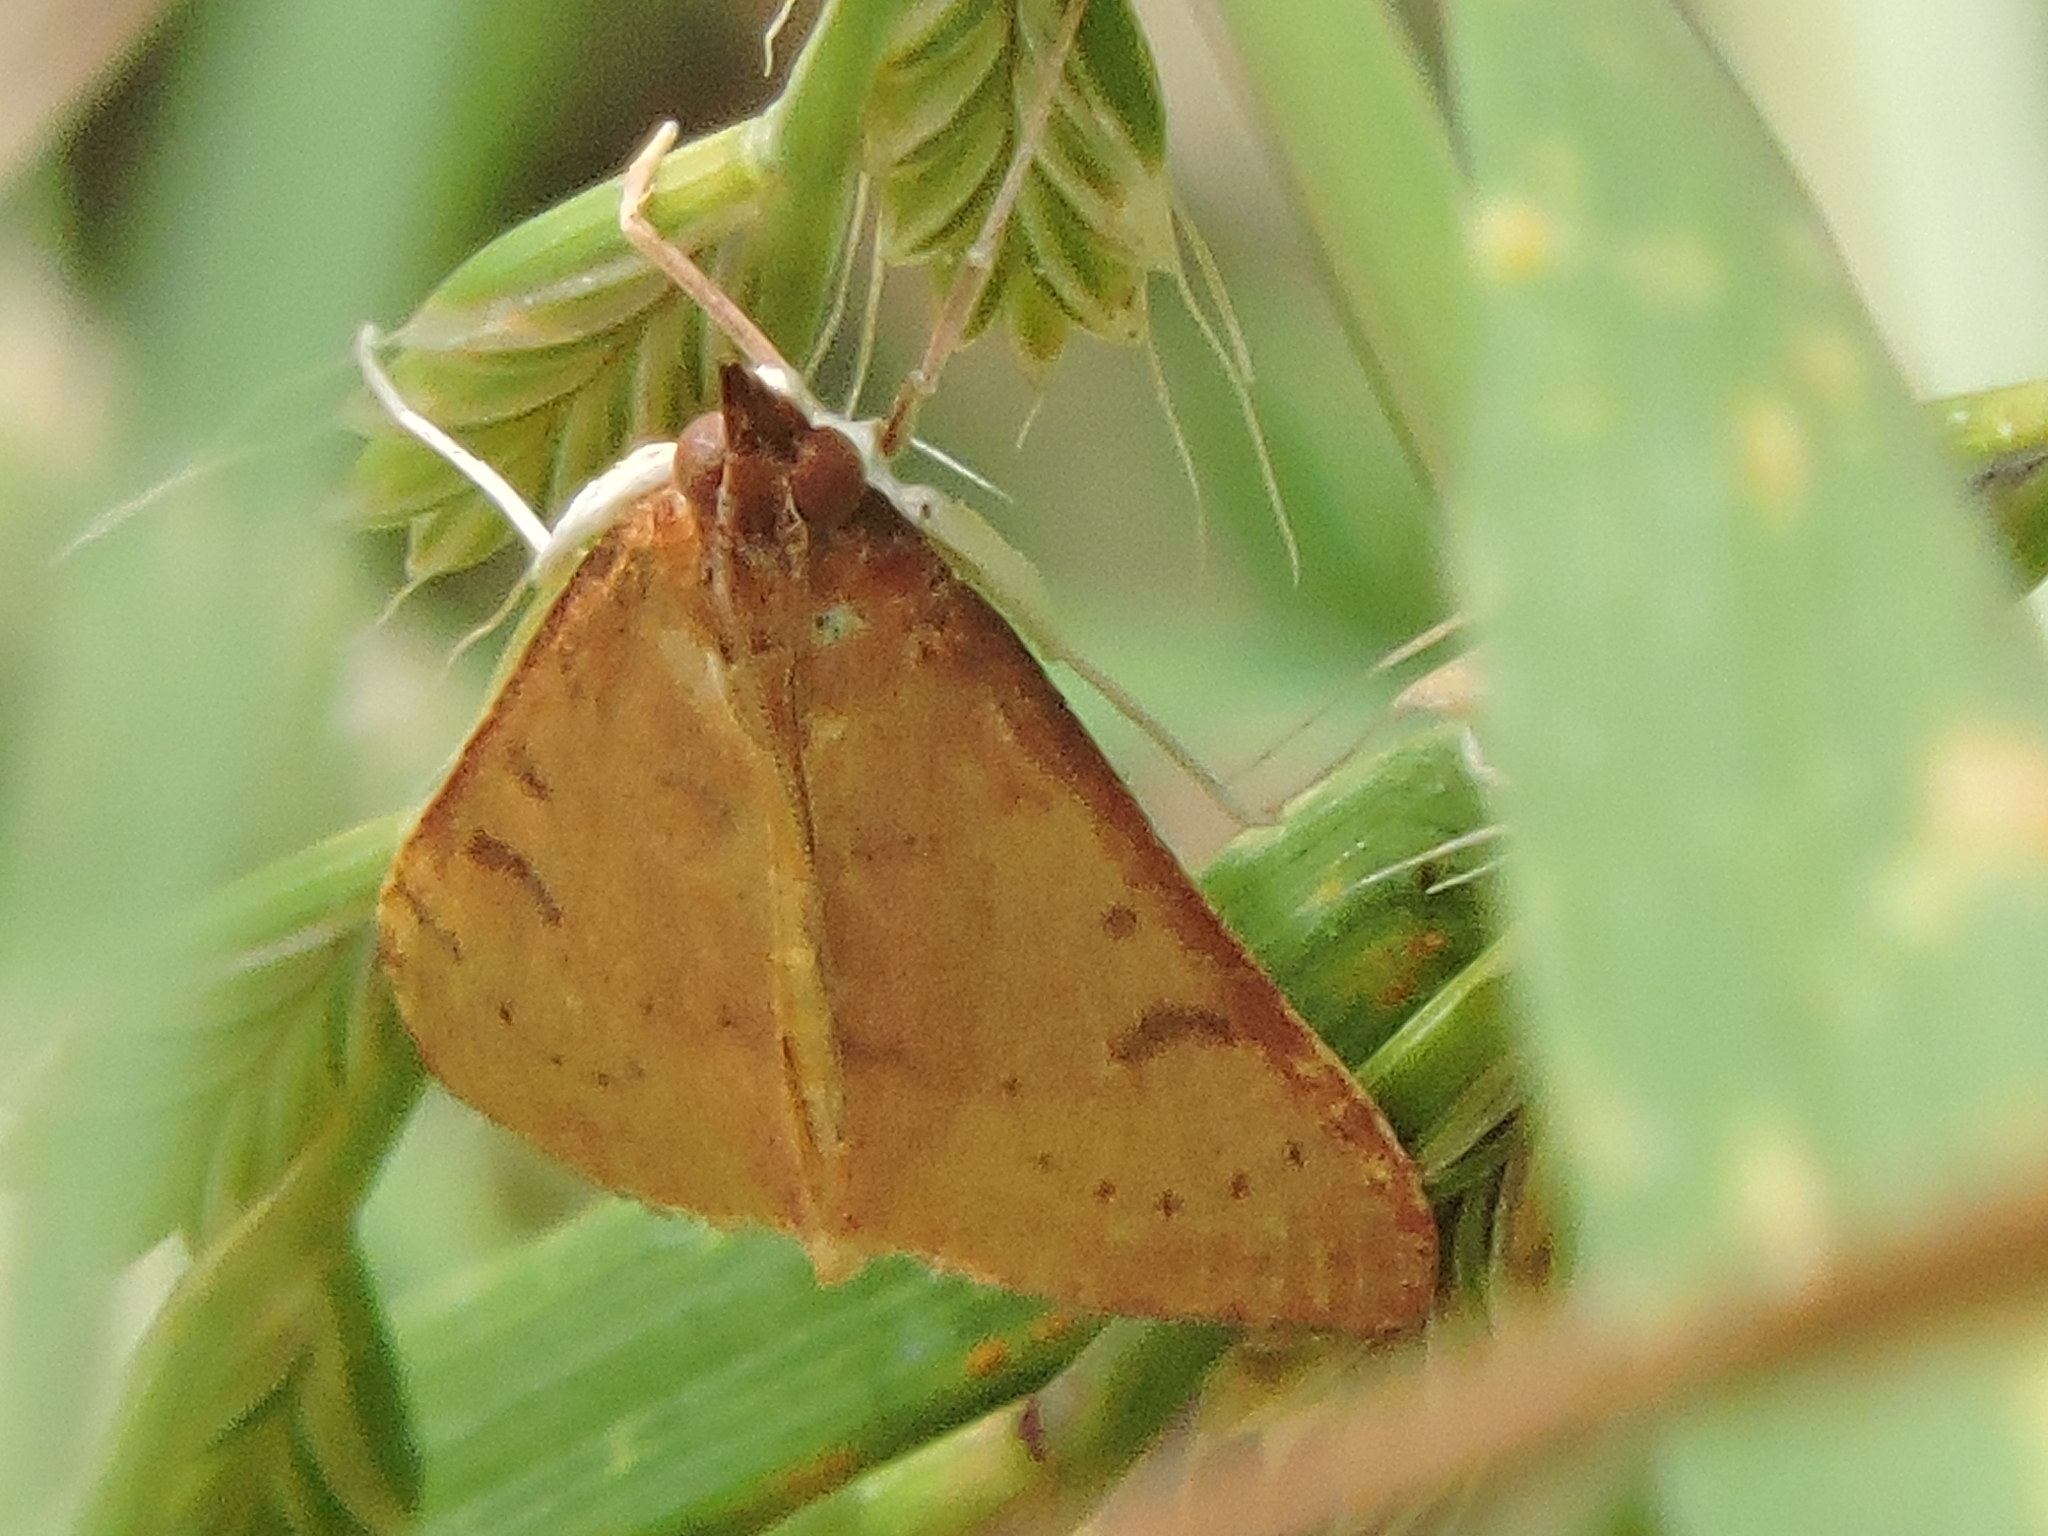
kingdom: Animalia
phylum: Arthropoda
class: Insecta
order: Lepidoptera
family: Crambidae
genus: Uresiphita
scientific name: Uresiphita reversalis
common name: Genista broom moth
